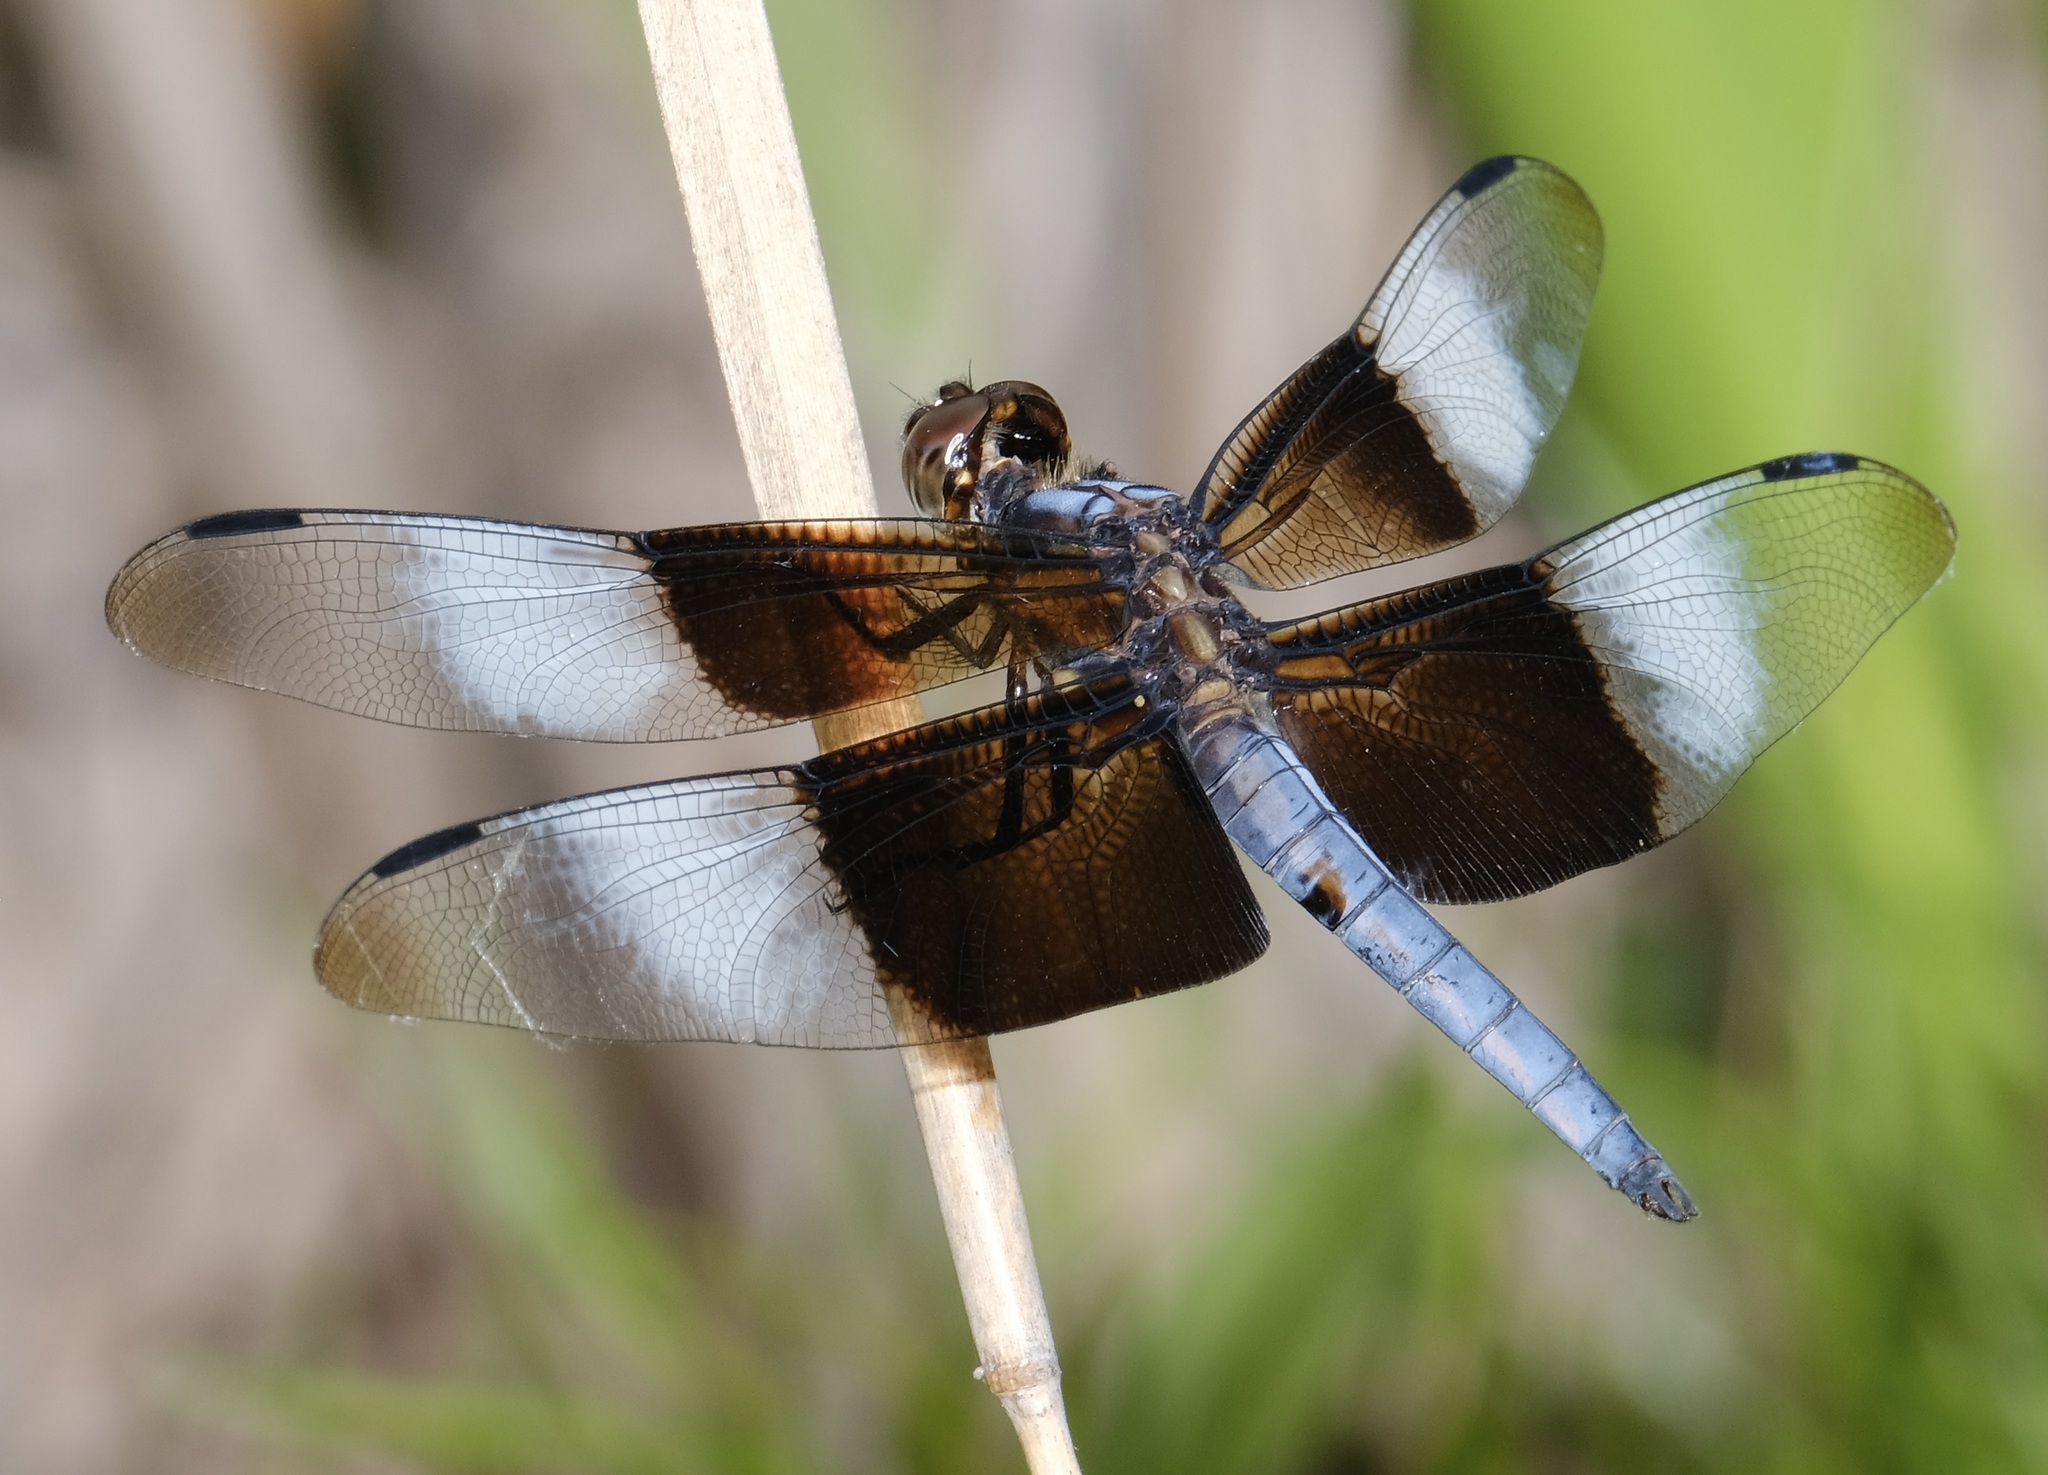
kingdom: Animalia
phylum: Arthropoda
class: Insecta
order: Odonata
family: Libellulidae
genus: Libellula
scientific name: Libellula luctuosa
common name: Widow skimmer
